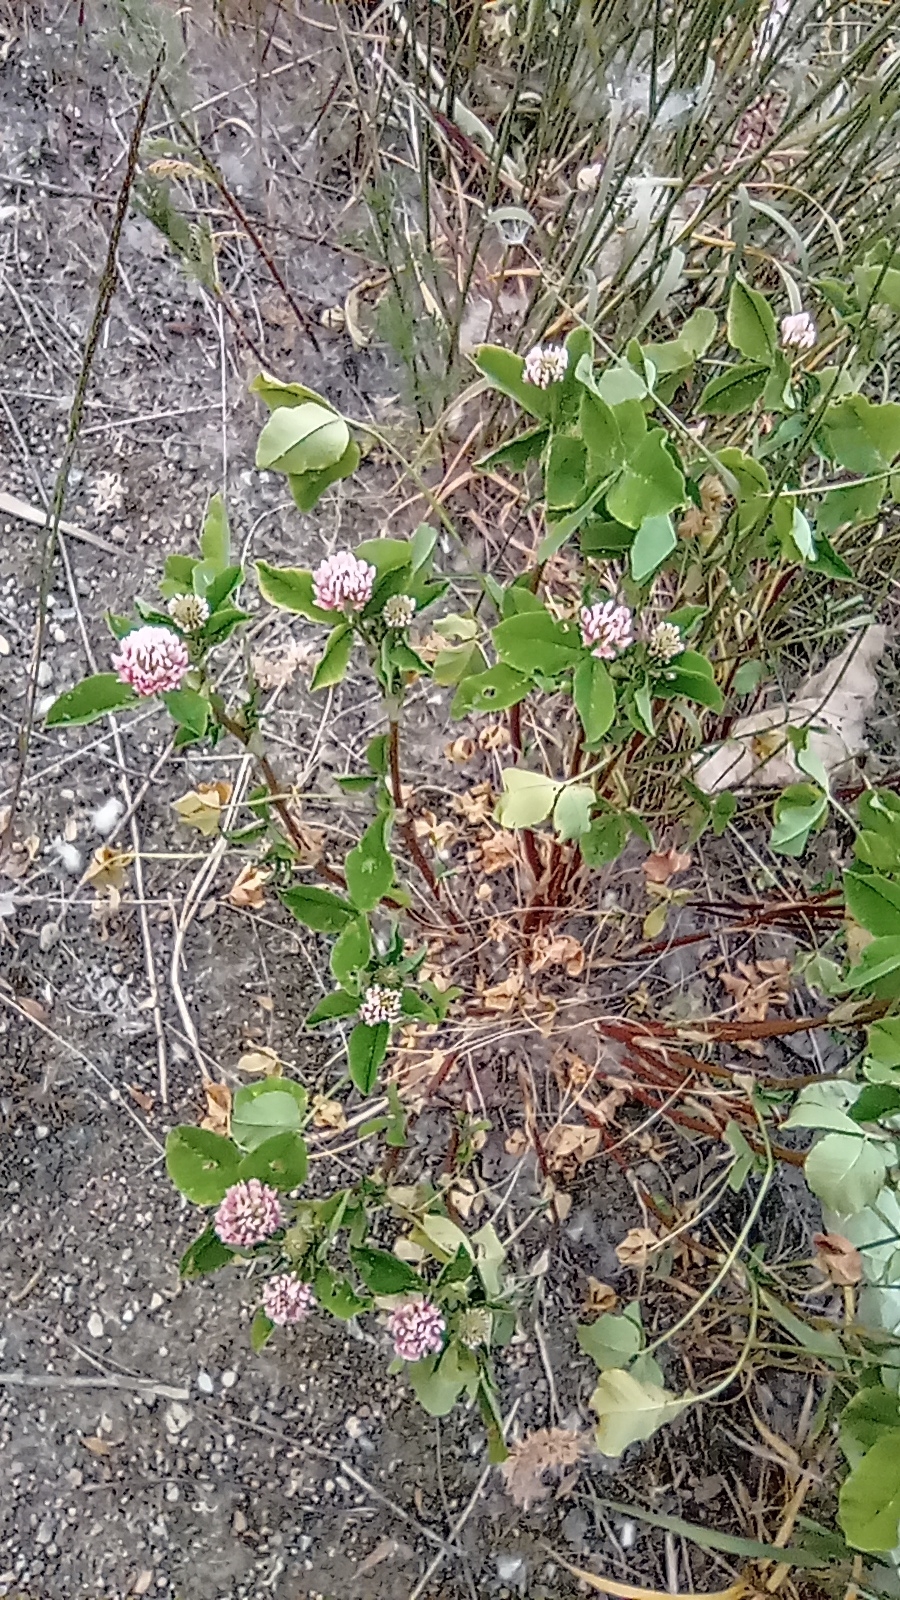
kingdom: Plantae
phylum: Tracheophyta
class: Magnoliopsida
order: Fabales
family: Fabaceae
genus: Trifolium
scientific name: Trifolium hybridum
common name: Alsike clover
